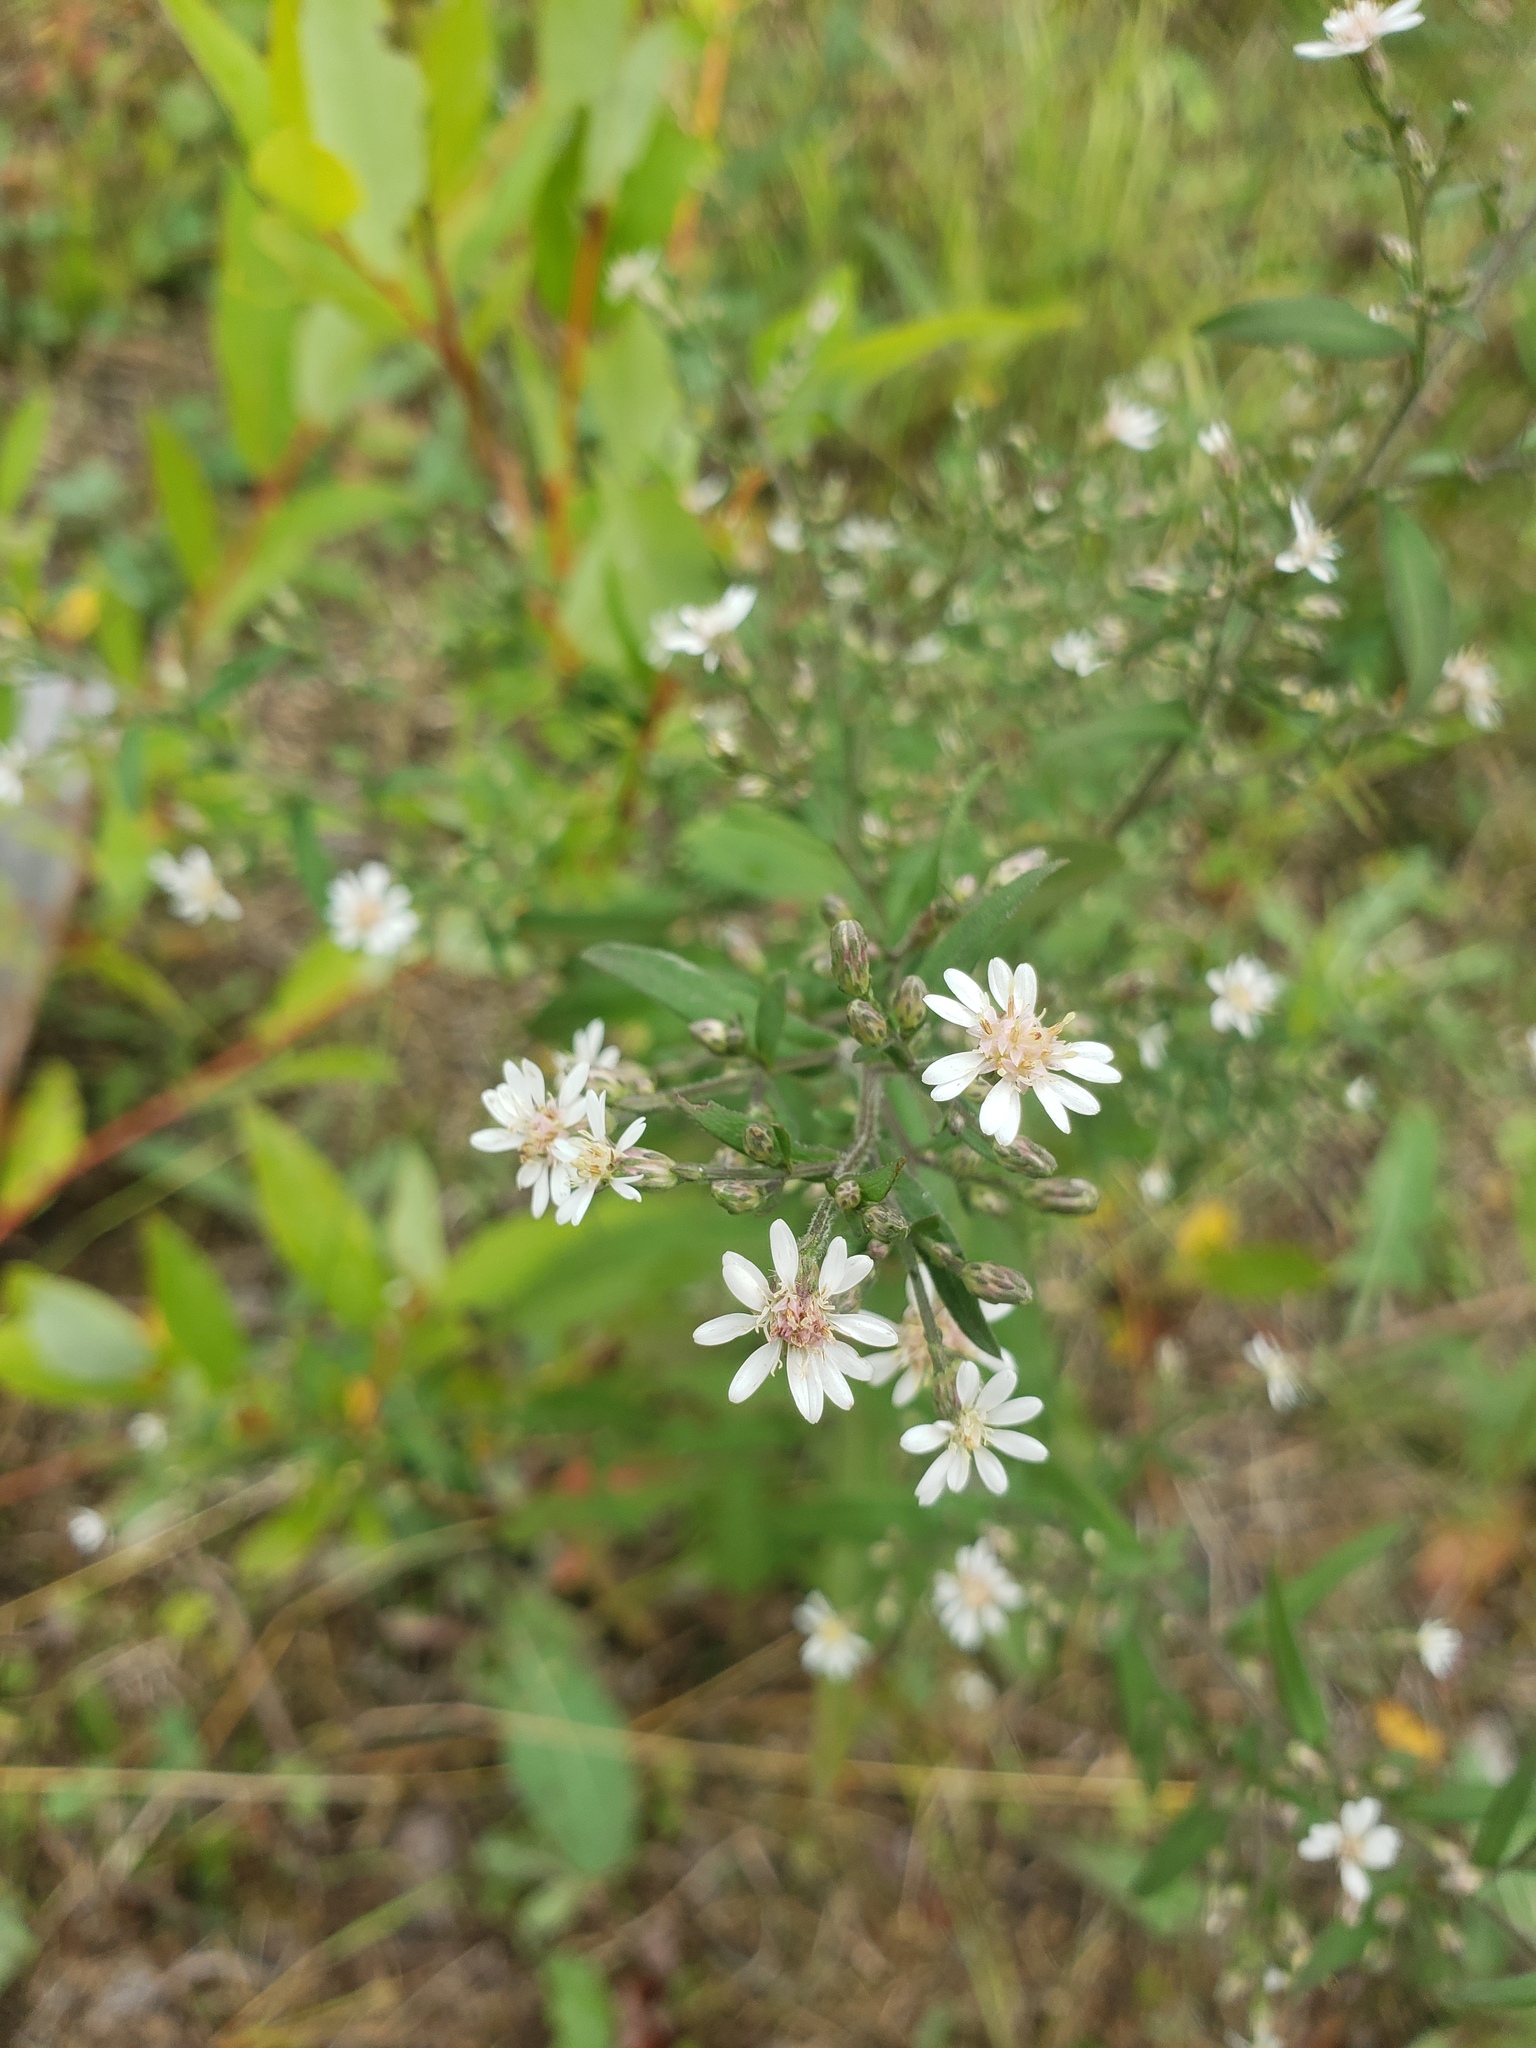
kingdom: Plantae
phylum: Tracheophyta
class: Magnoliopsida
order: Asterales
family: Asteraceae
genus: Symphyotrichum
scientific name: Symphyotrichum lateriflorum
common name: Calico aster
